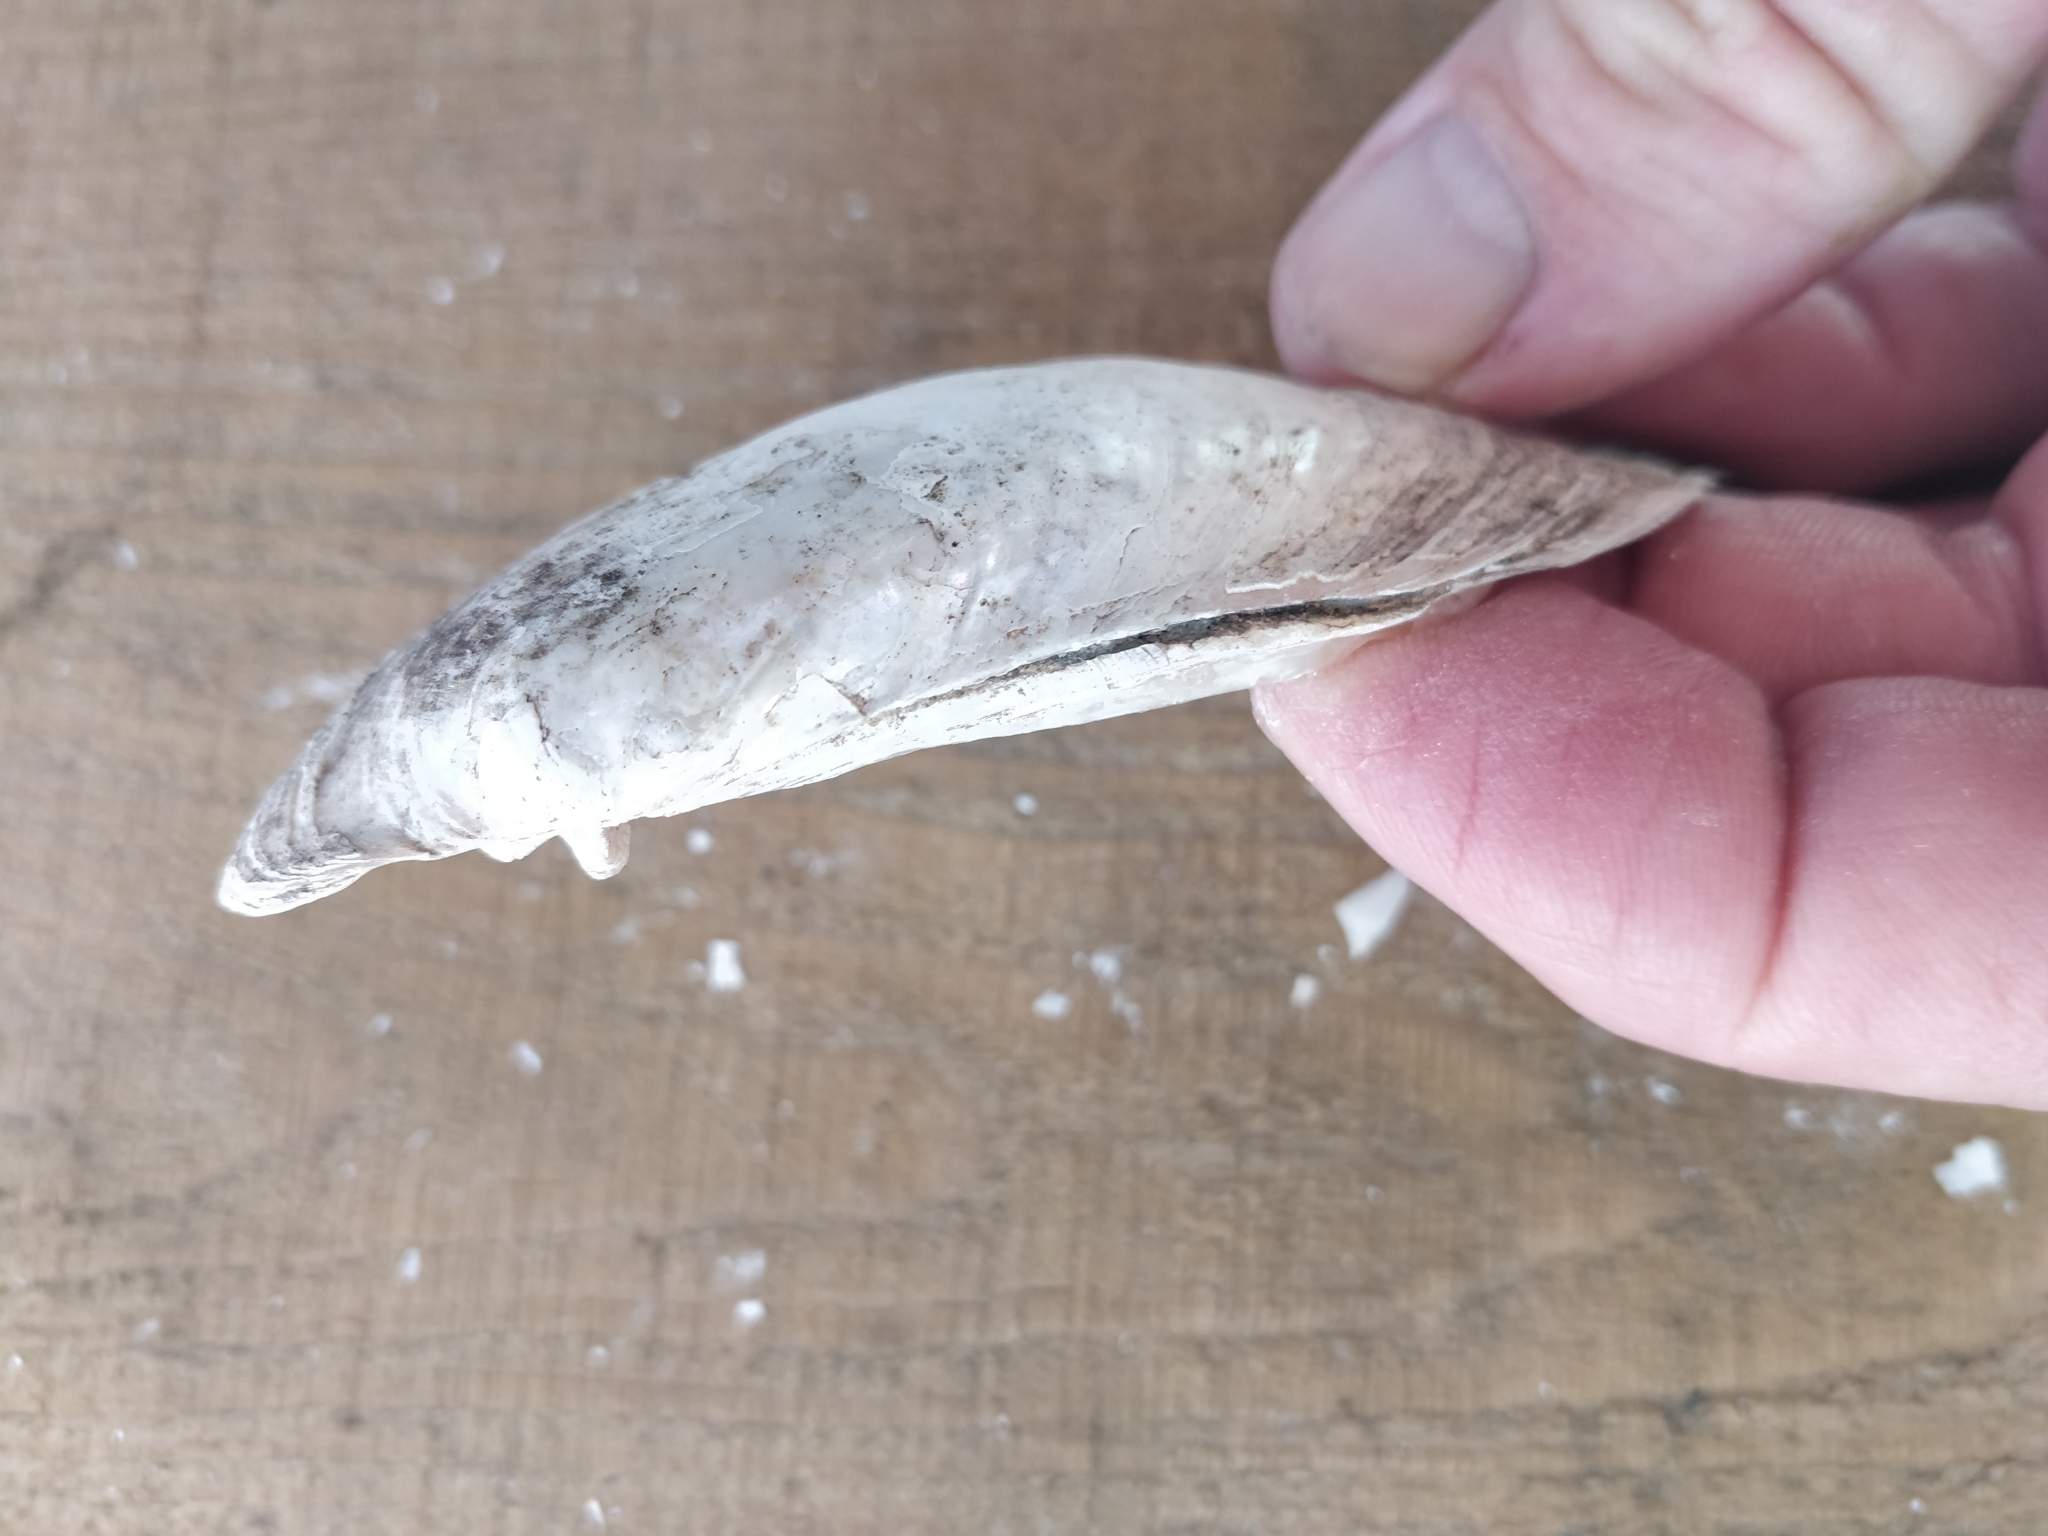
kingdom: Animalia
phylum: Mollusca
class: Bivalvia
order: Unionida
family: Unionidae
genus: Lampsilis
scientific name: Lampsilis siliquoidea
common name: Fatmucket
